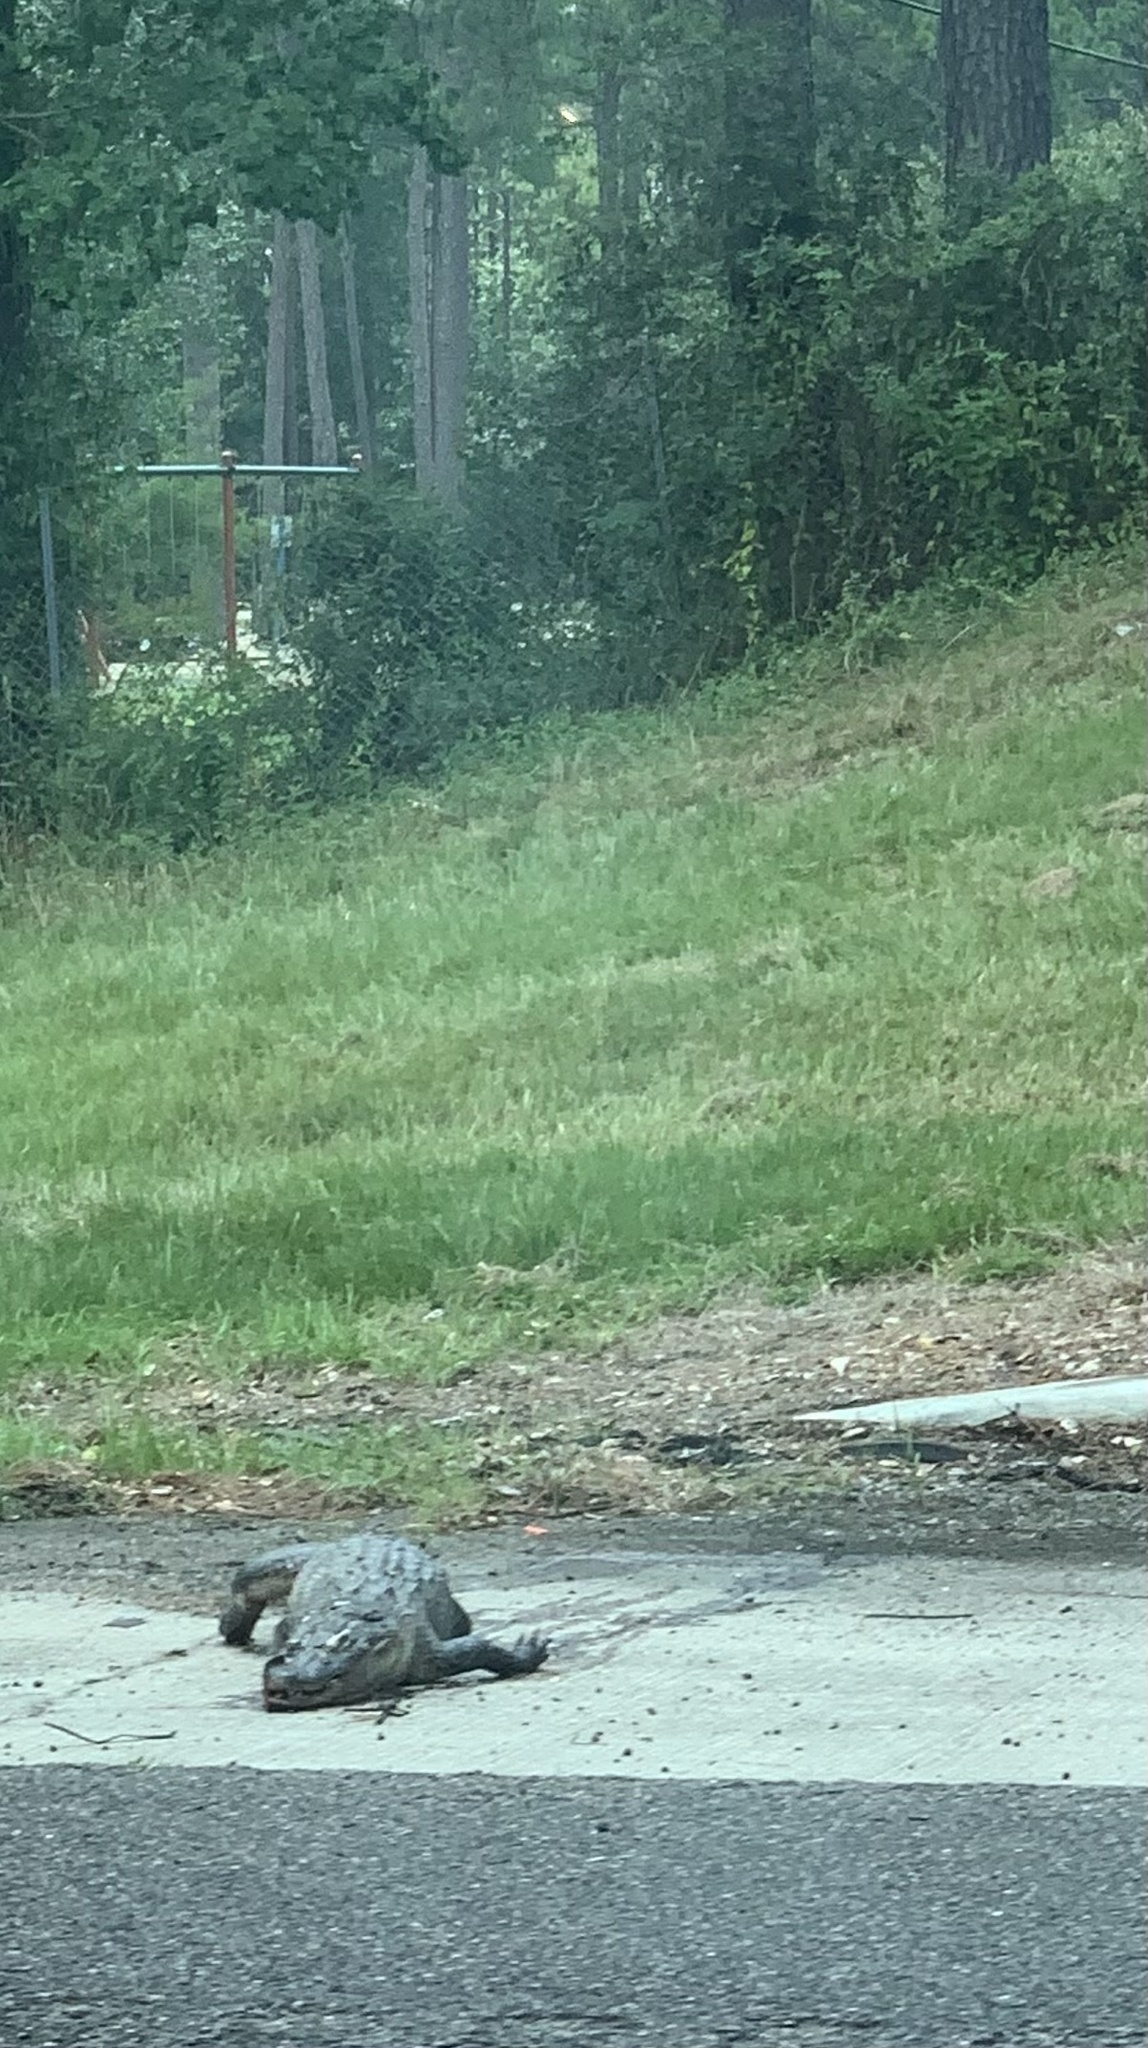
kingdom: Animalia
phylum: Chordata
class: Crocodylia
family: Alligatoridae
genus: Alligator
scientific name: Alligator mississippiensis
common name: American alligator
